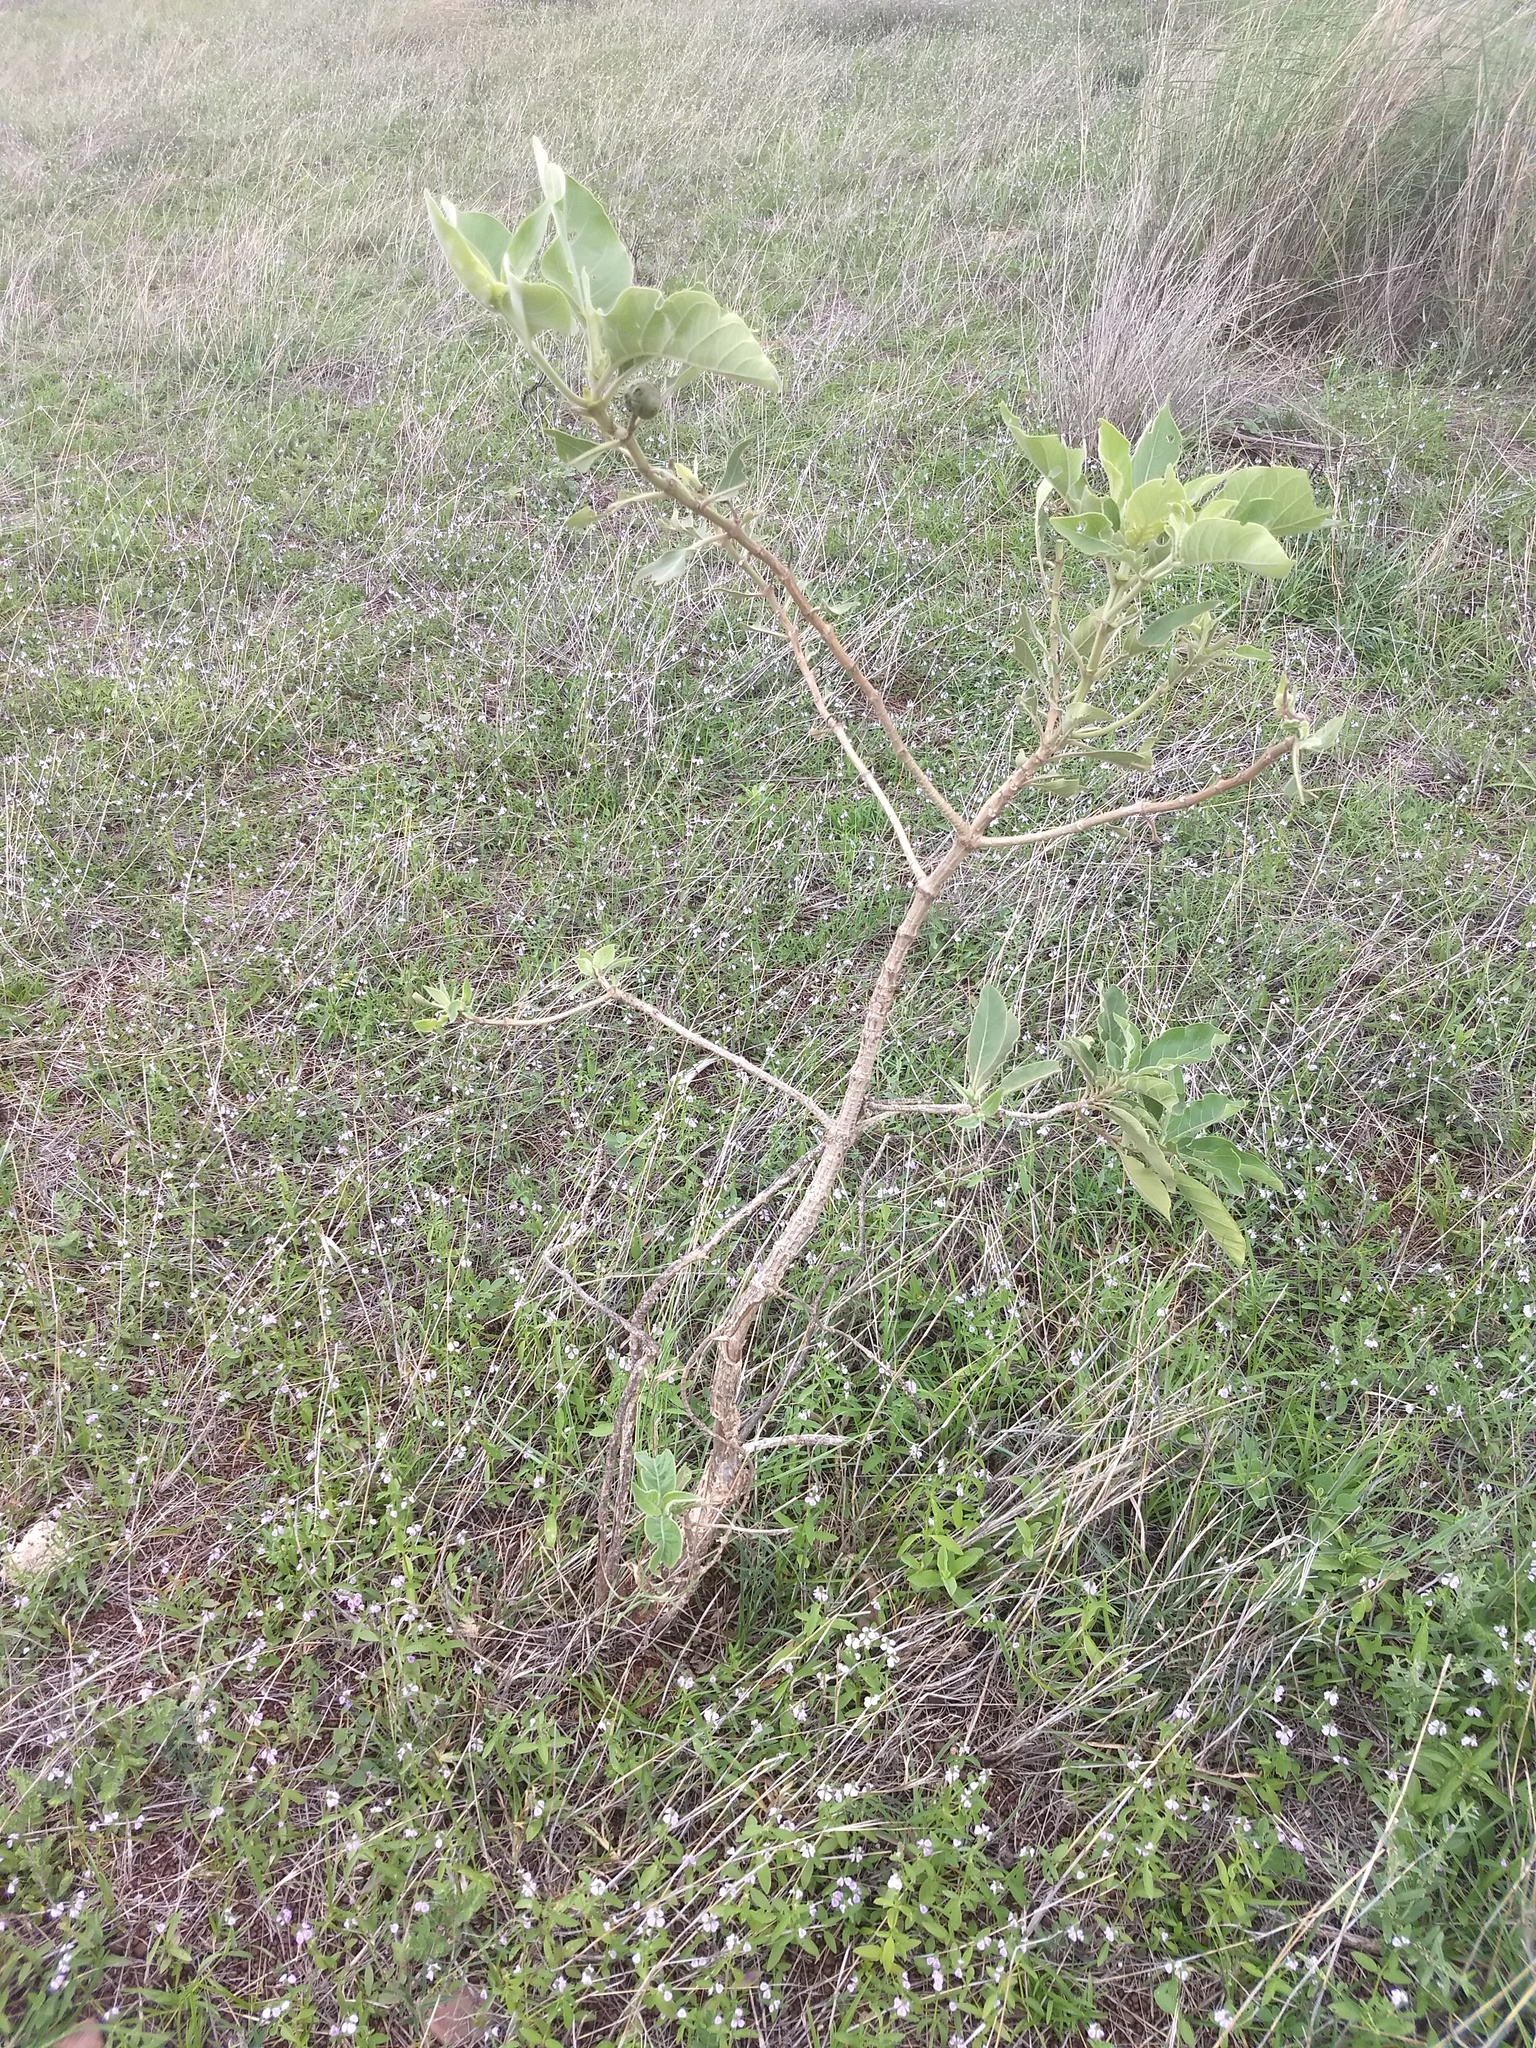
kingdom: Plantae
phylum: Tracheophyta
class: Magnoliopsida
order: Gentianales
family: Rubiaceae
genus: Morinda
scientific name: Morinda coreia
